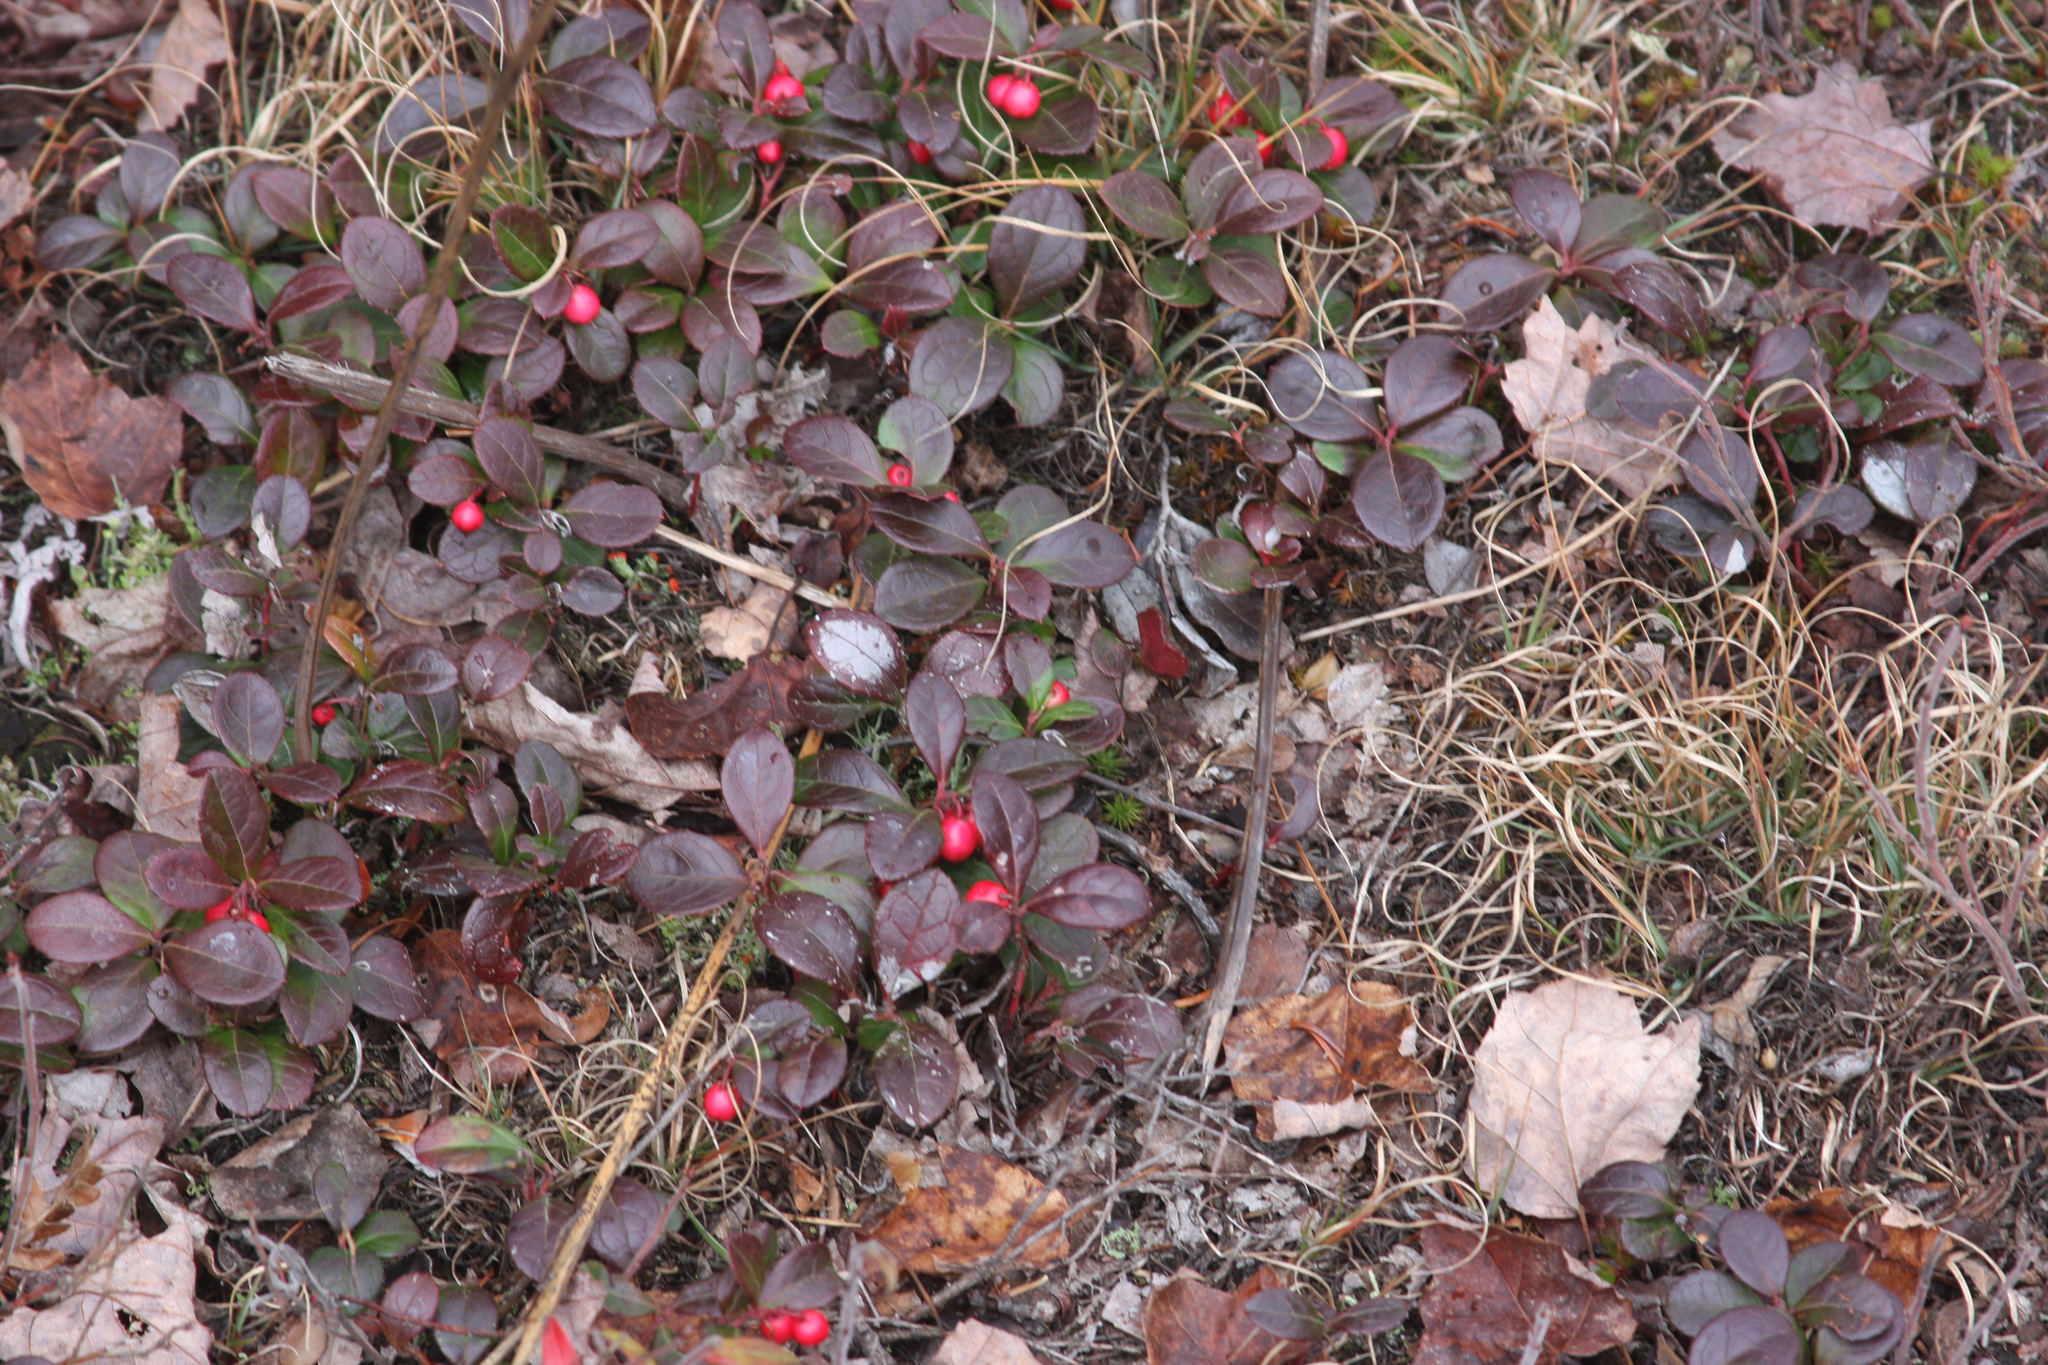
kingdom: Plantae
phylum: Tracheophyta
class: Magnoliopsida
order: Ericales
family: Ericaceae
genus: Gaultheria
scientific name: Gaultheria procumbens
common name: Checkerberry
